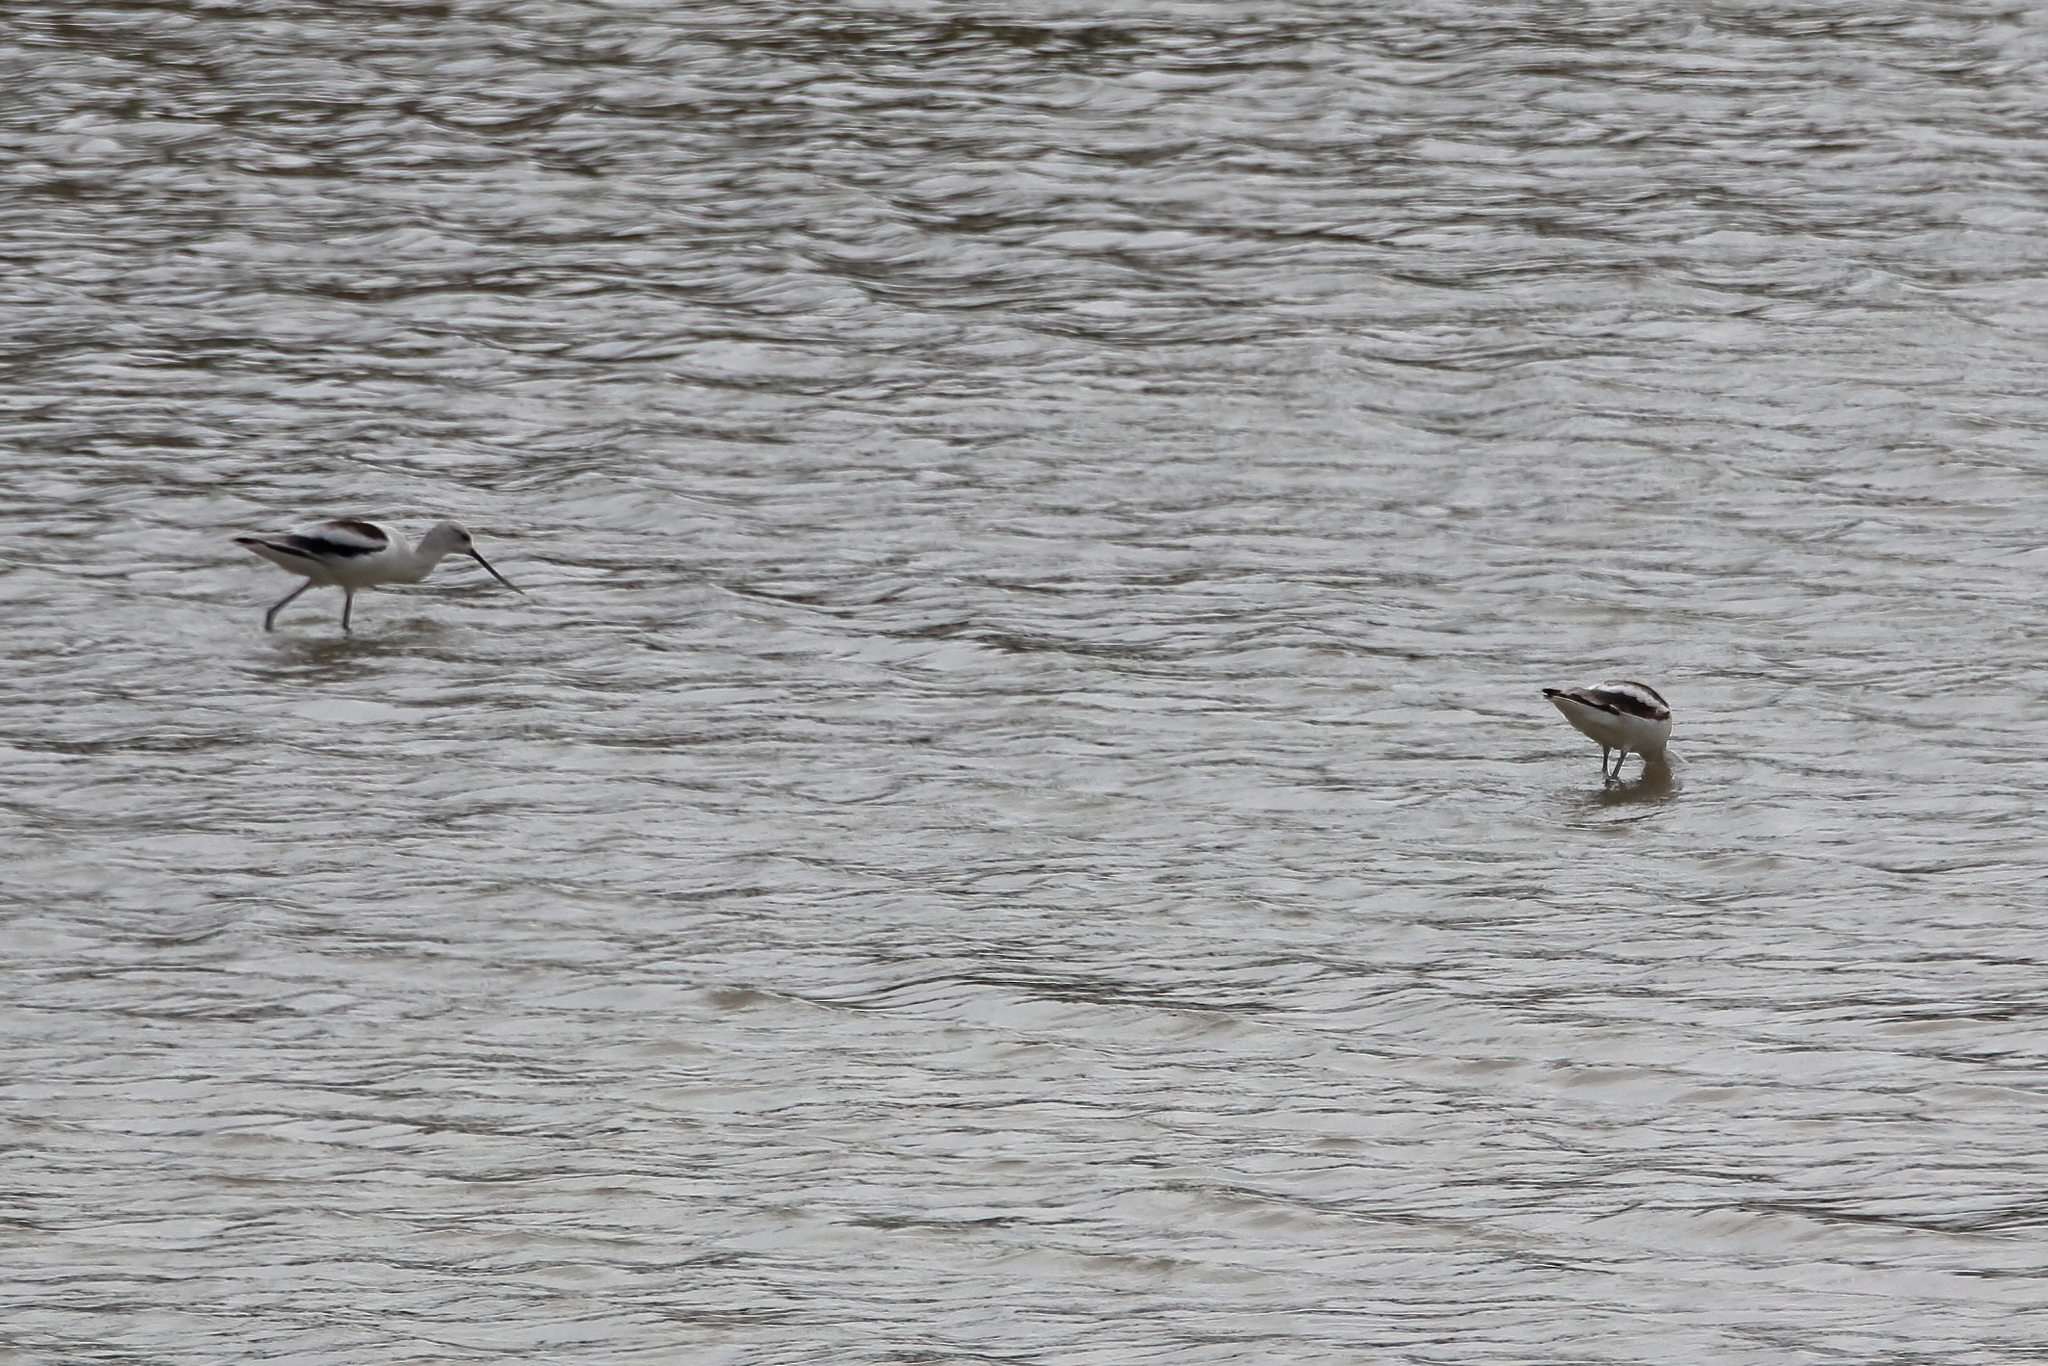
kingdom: Animalia
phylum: Chordata
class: Aves
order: Charadriiformes
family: Recurvirostridae
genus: Recurvirostra
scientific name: Recurvirostra americana
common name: American avocet
